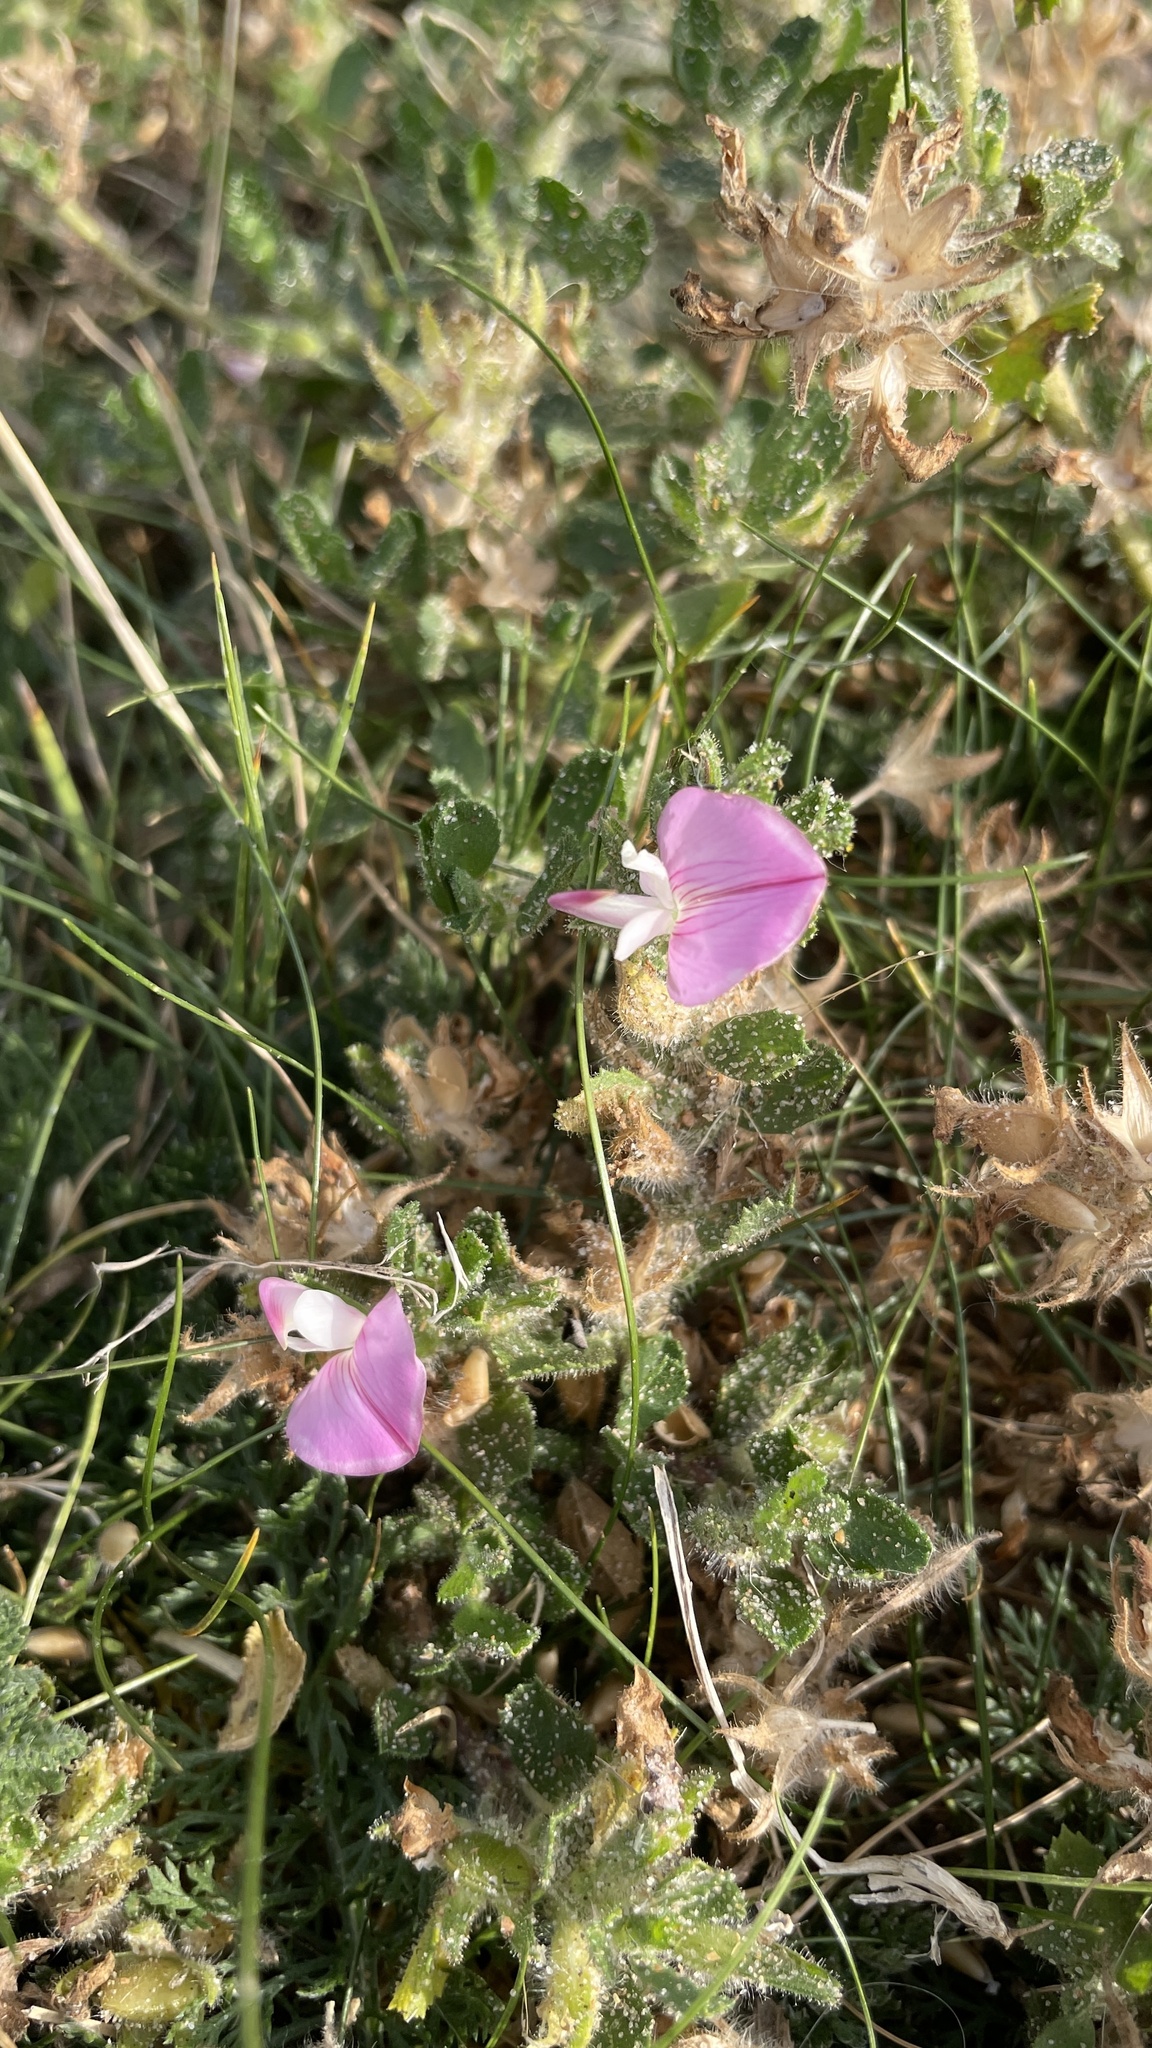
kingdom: Plantae
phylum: Tracheophyta
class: Magnoliopsida
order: Fabales
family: Fabaceae
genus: Ononis
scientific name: Ononis spinosa
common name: Spiny restharrow
